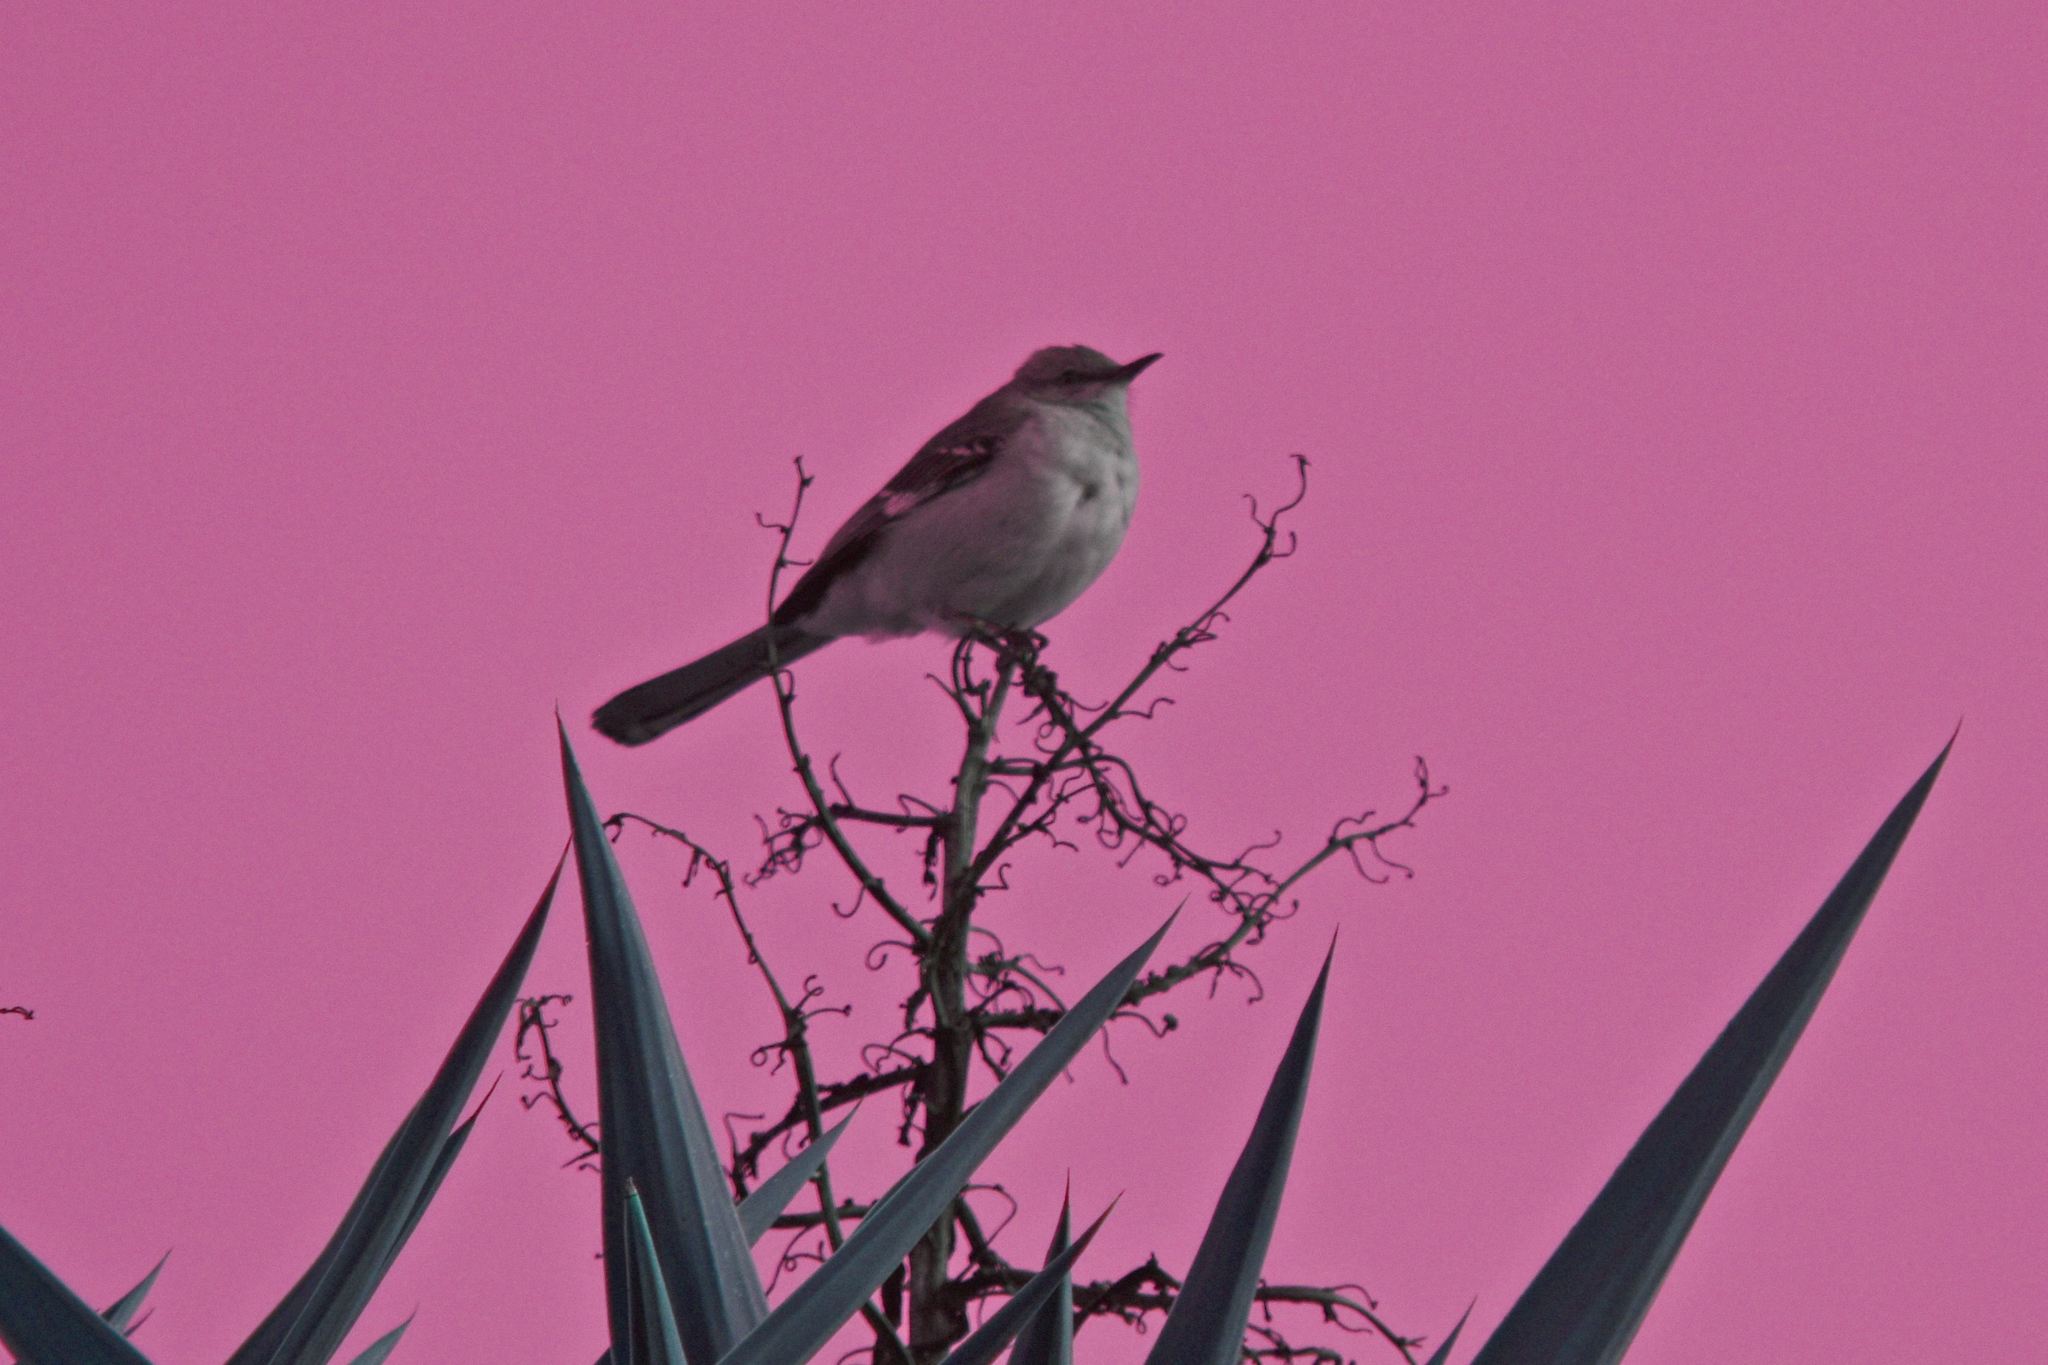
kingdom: Animalia
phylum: Chordata
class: Aves
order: Passeriformes
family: Mimidae
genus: Mimus
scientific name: Mimus polyglottos
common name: Northern mockingbird
